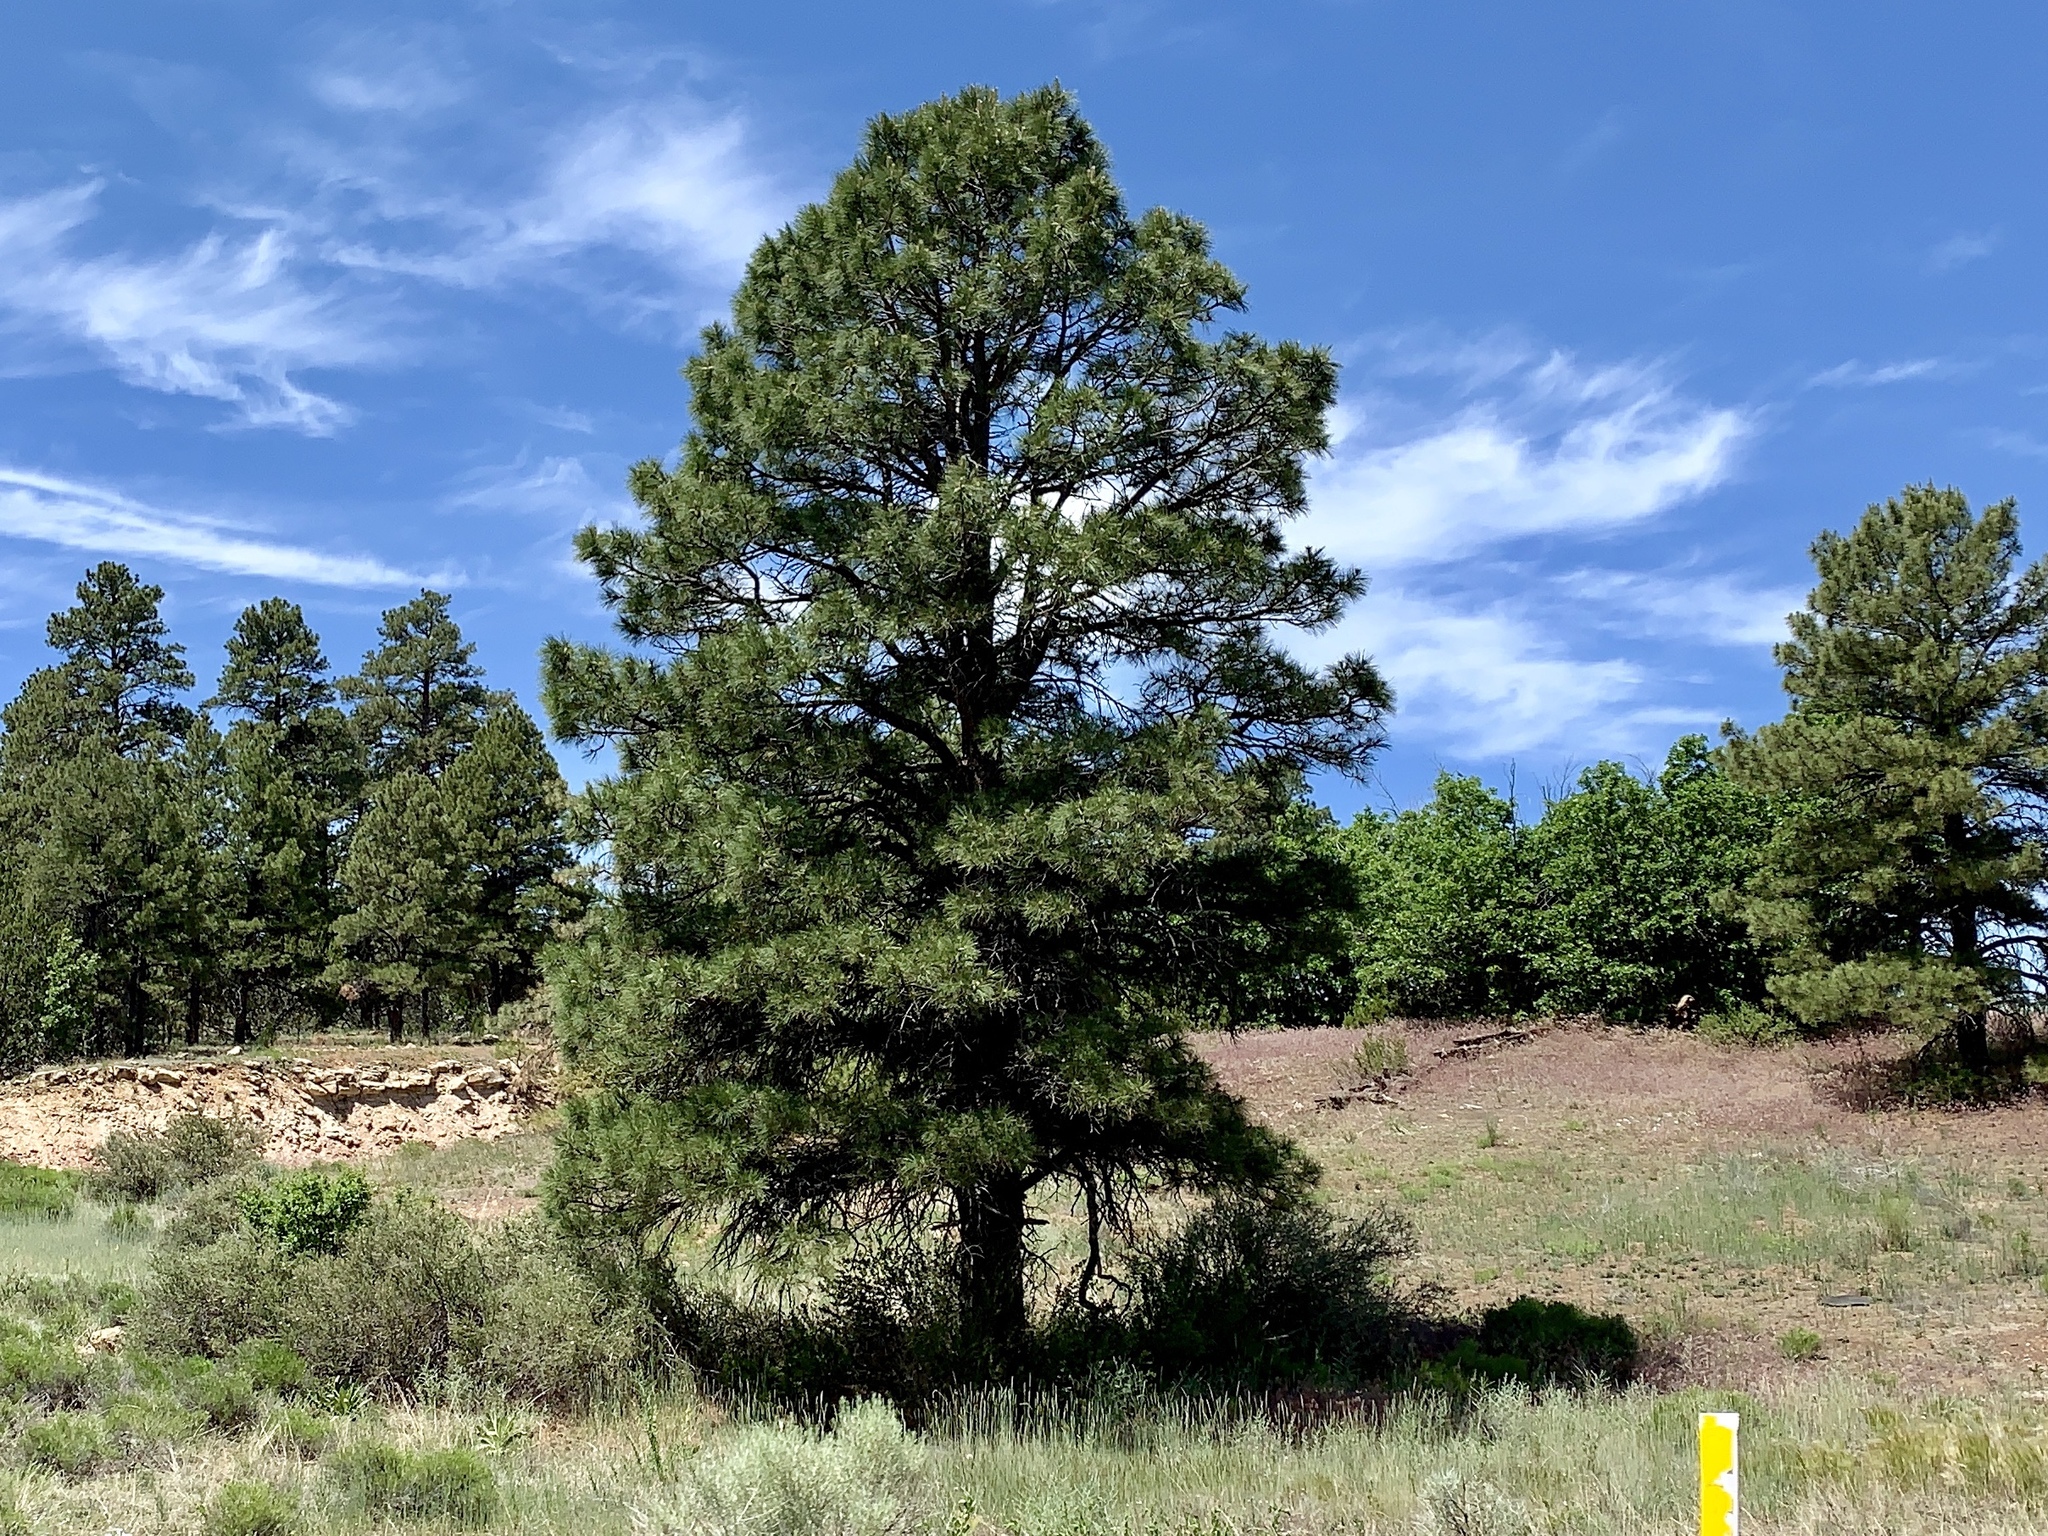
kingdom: Plantae
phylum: Tracheophyta
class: Pinopsida
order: Pinales
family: Pinaceae
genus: Pinus
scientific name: Pinus ponderosa
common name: Western yellow-pine
